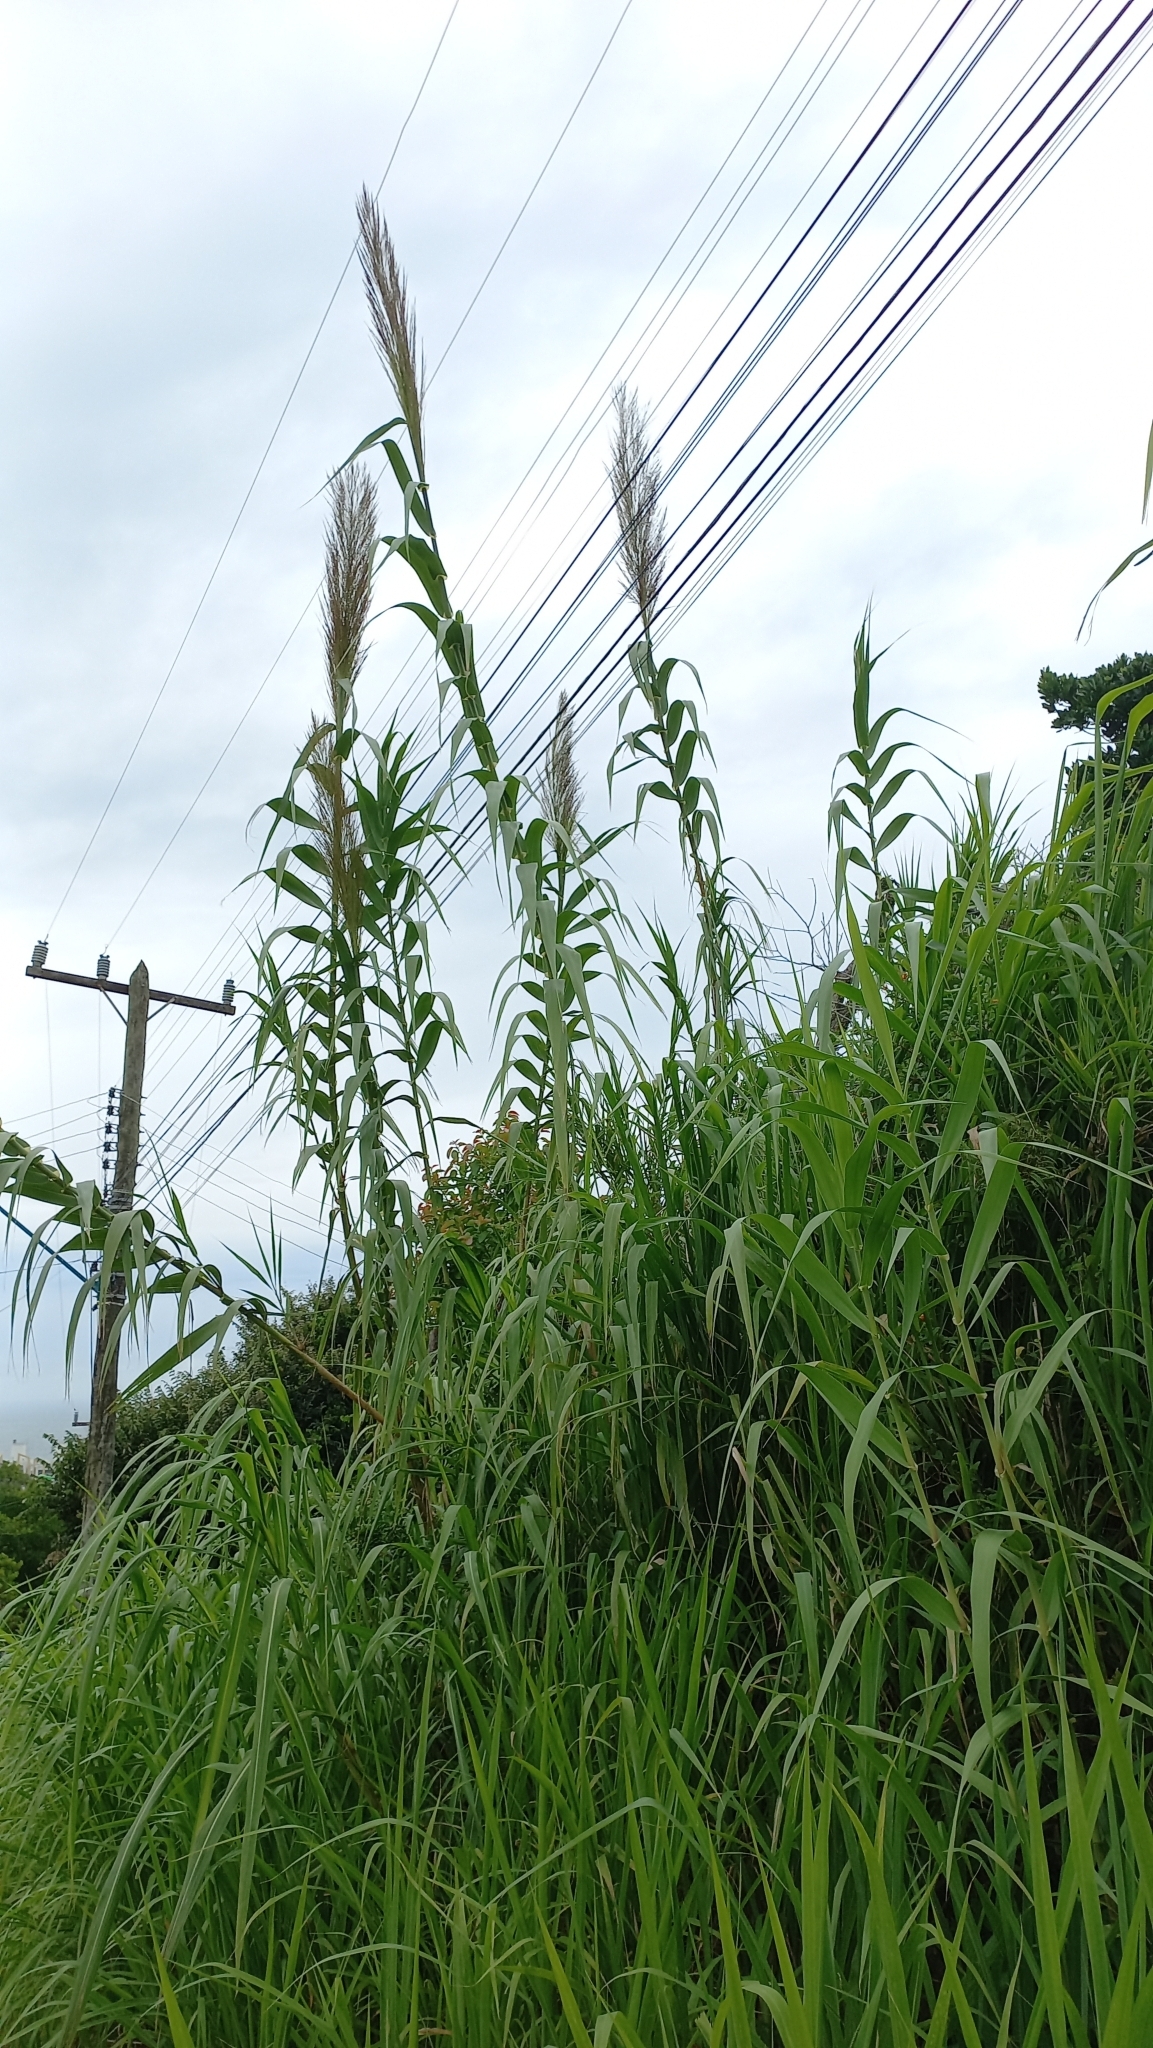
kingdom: Plantae
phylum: Tracheophyta
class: Liliopsida
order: Poales
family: Poaceae
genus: Arundo
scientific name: Arundo donax
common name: Giant reed
